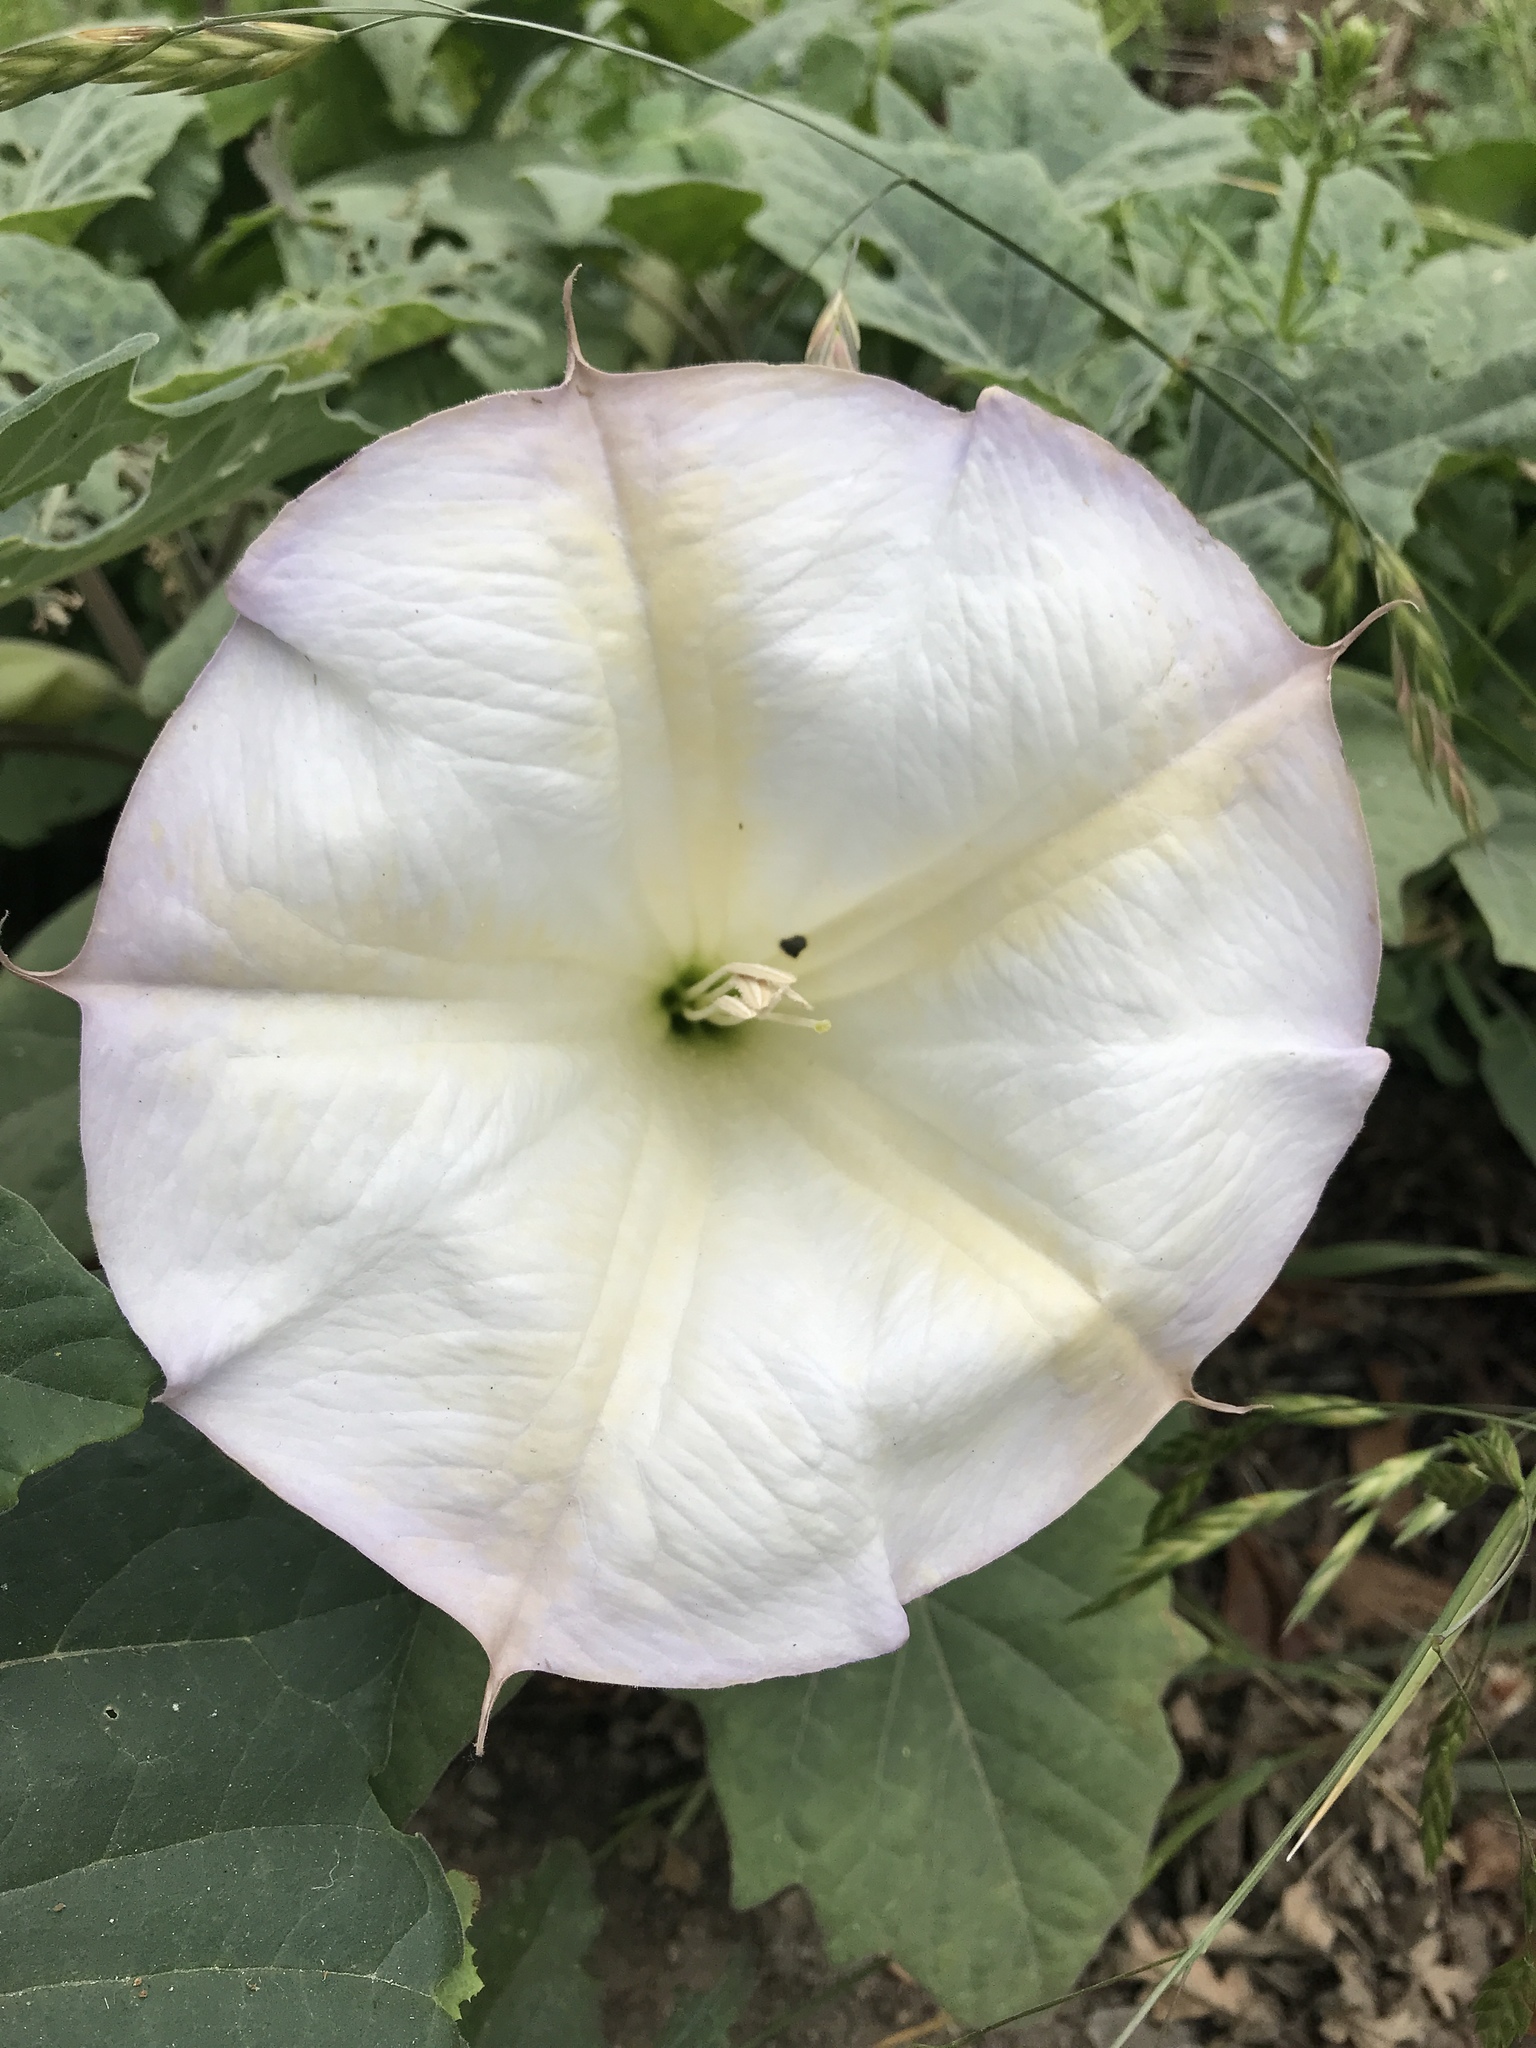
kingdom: Plantae
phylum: Tracheophyta
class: Magnoliopsida
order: Solanales
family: Solanaceae
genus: Datura
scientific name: Datura wrightii
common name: Sacred thorn-apple
